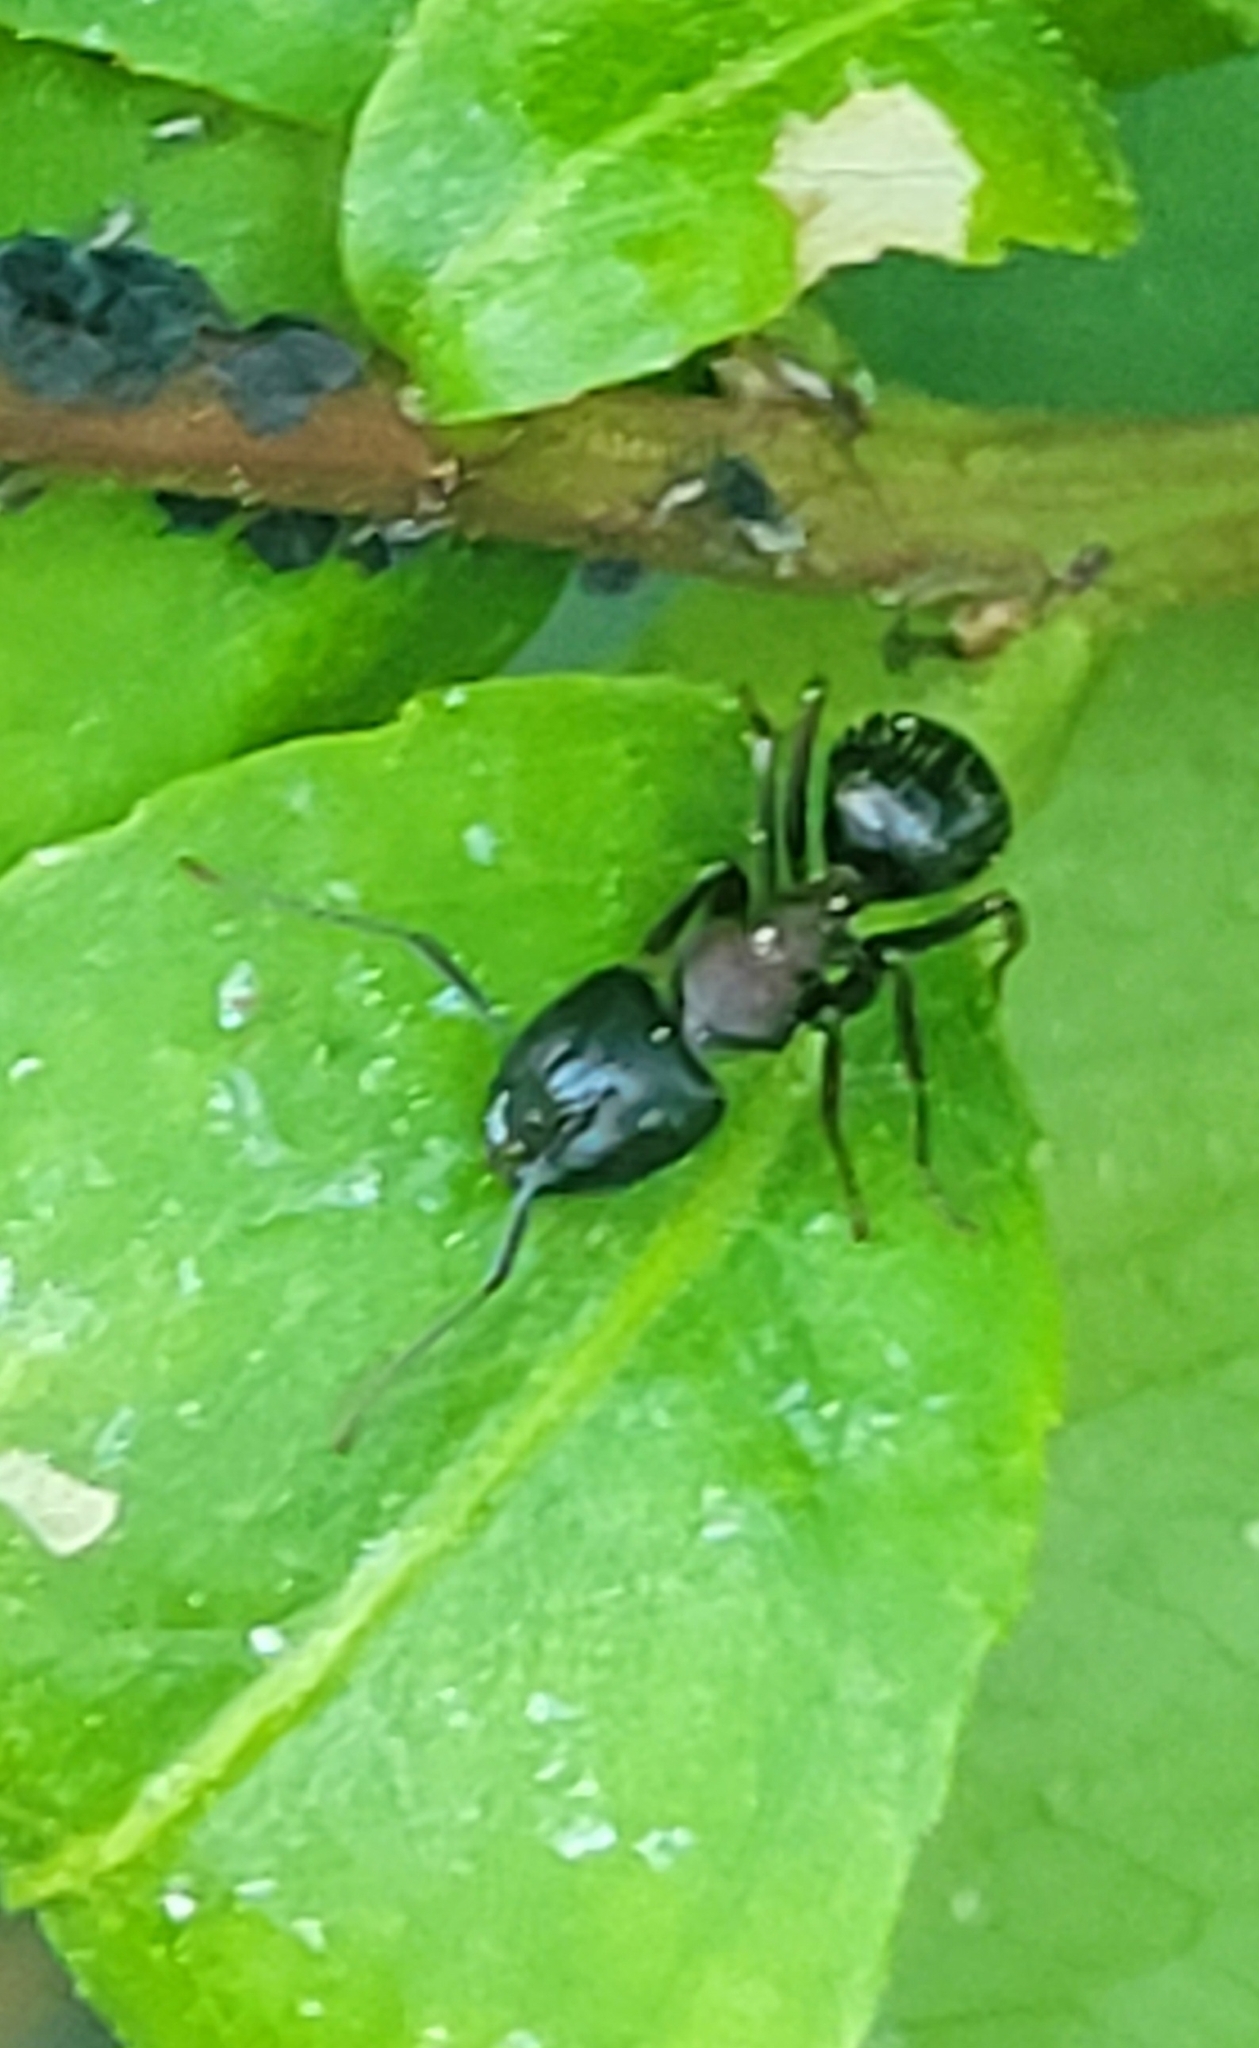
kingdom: Animalia
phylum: Arthropoda
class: Insecta
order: Hymenoptera
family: Formicidae
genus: Camponotus
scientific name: Camponotus novaeboracensis
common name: New york carpenter ant
